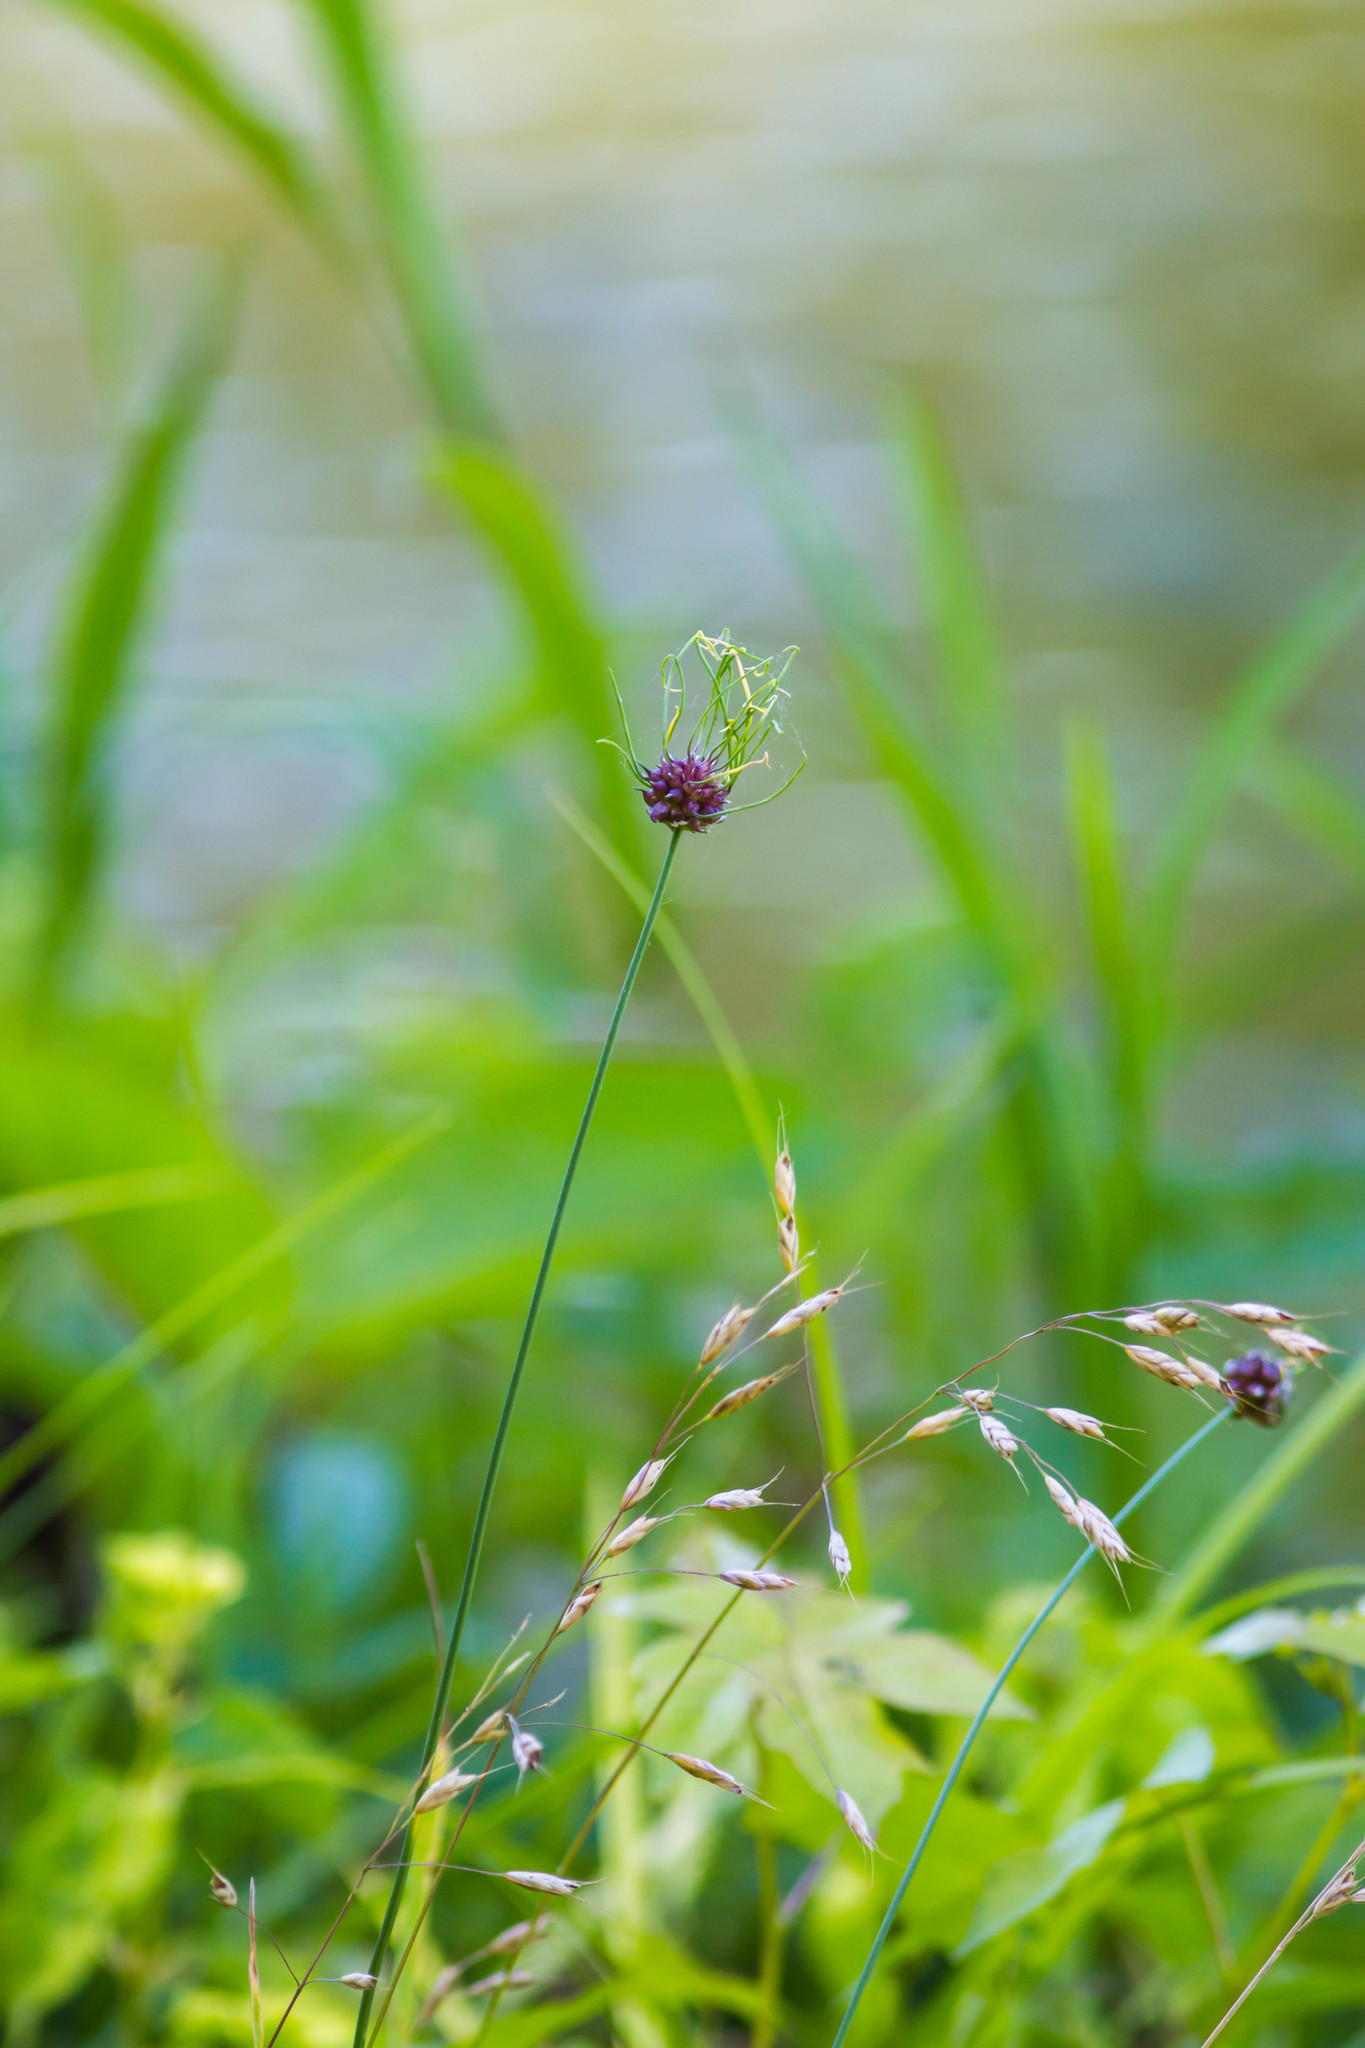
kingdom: Plantae
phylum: Tracheophyta
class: Liliopsida
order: Asparagales
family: Amaryllidaceae
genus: Allium
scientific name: Allium vineale
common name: Crow garlic
